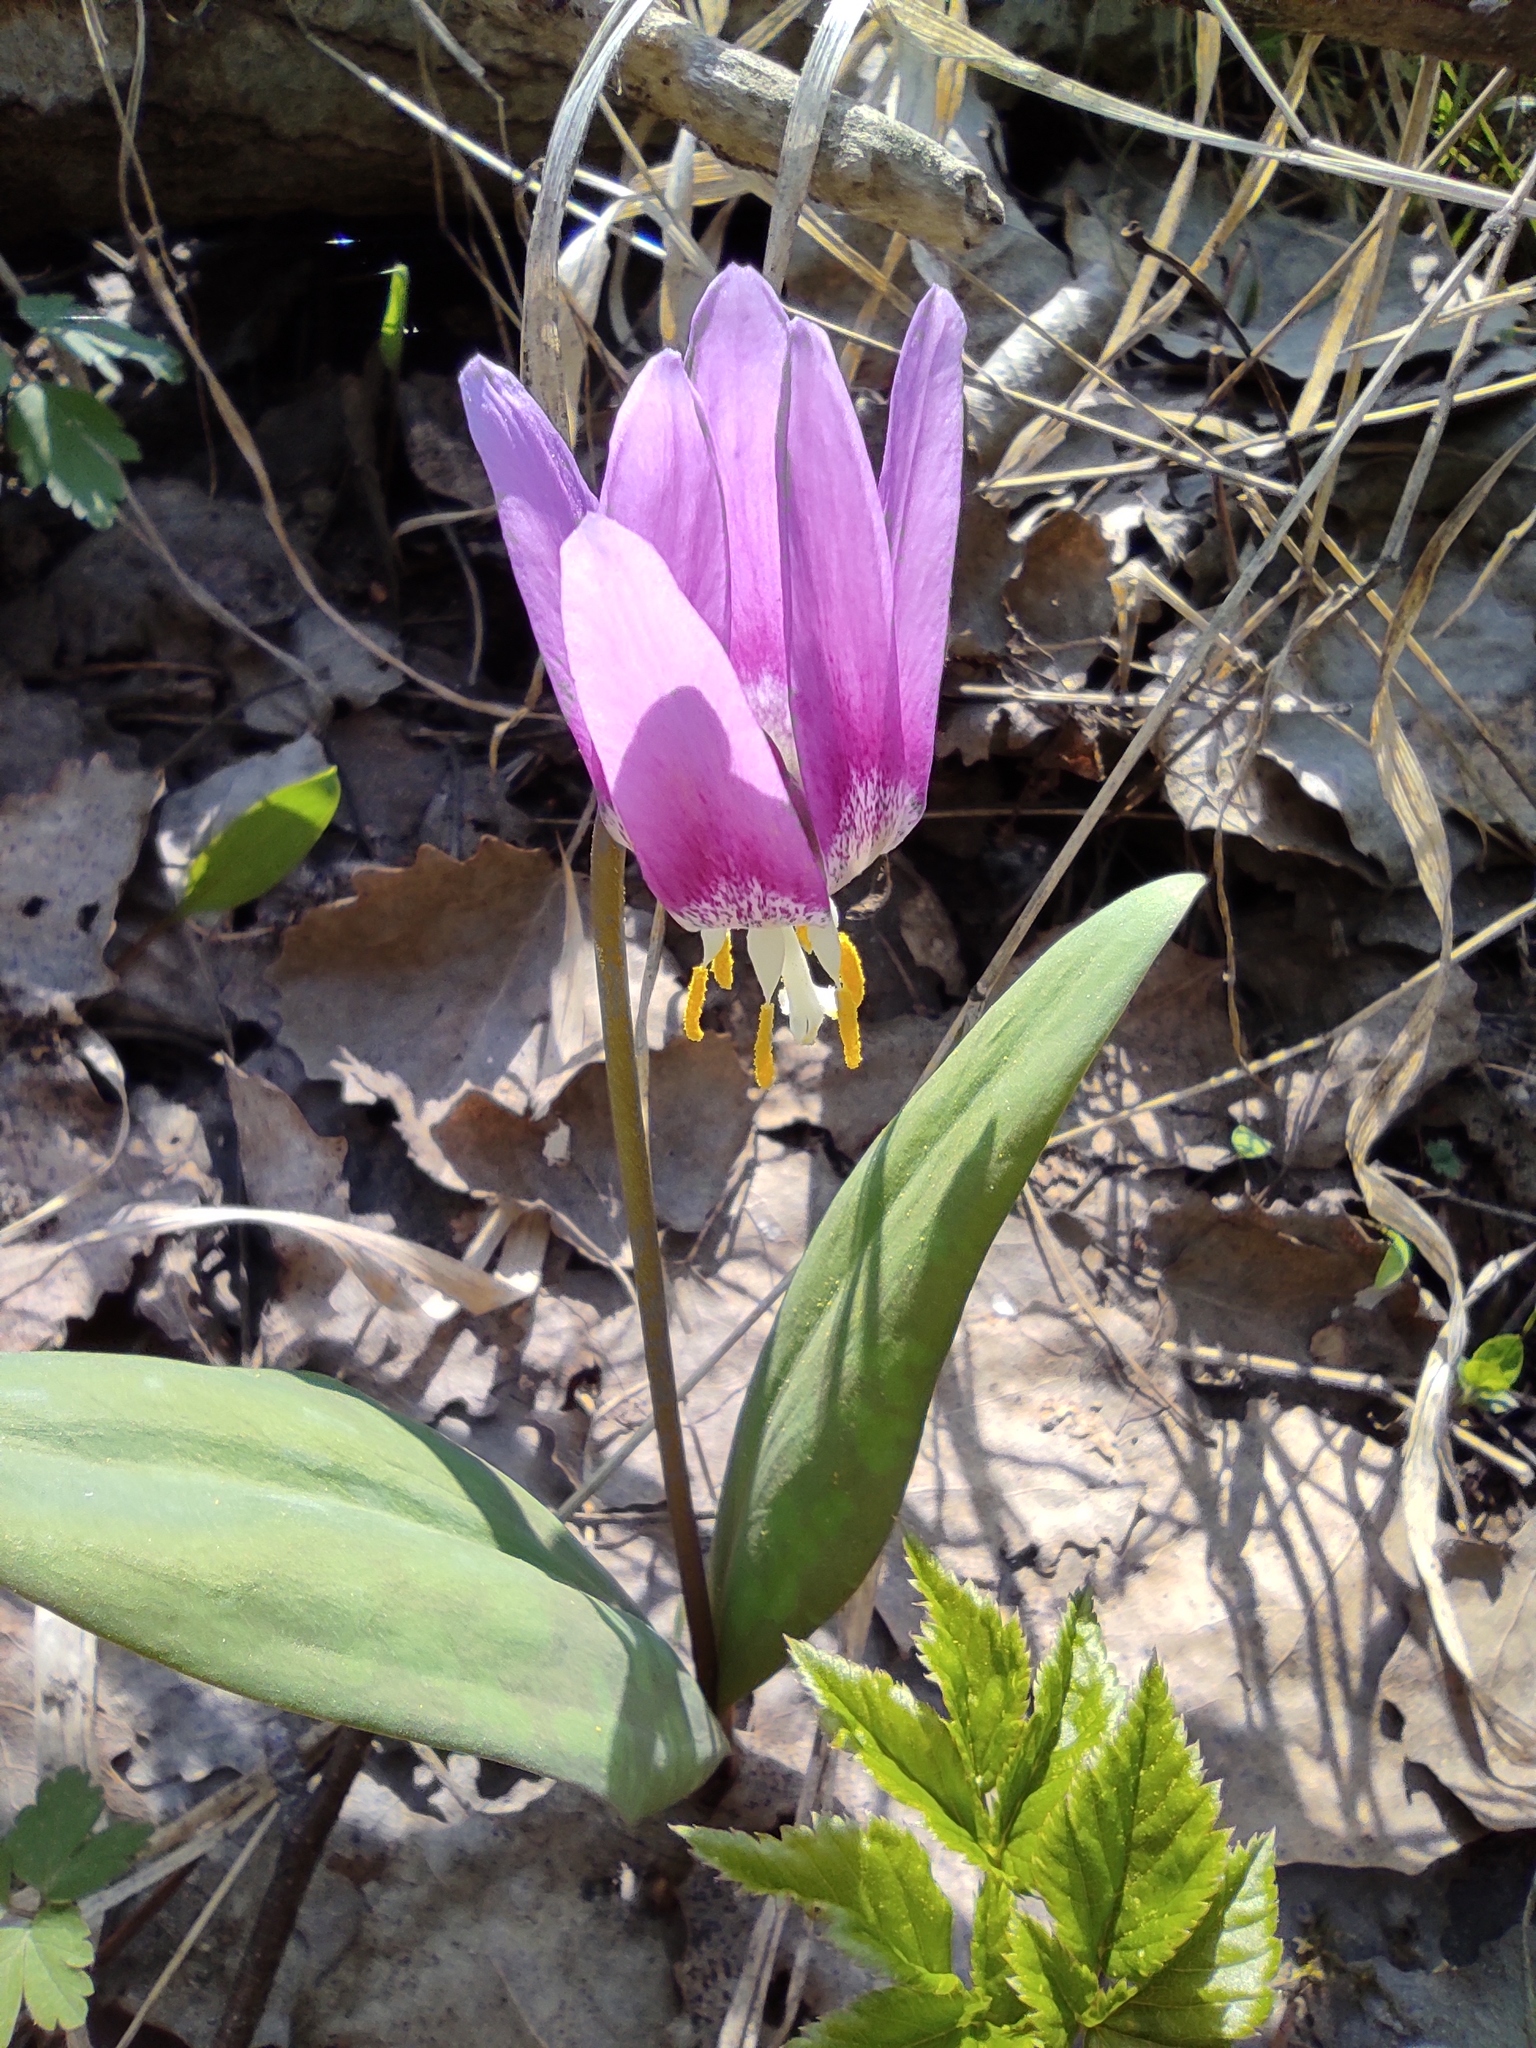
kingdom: Plantae
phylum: Tracheophyta
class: Liliopsida
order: Liliales
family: Liliaceae
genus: Erythronium
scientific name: Erythronium sibiricum
